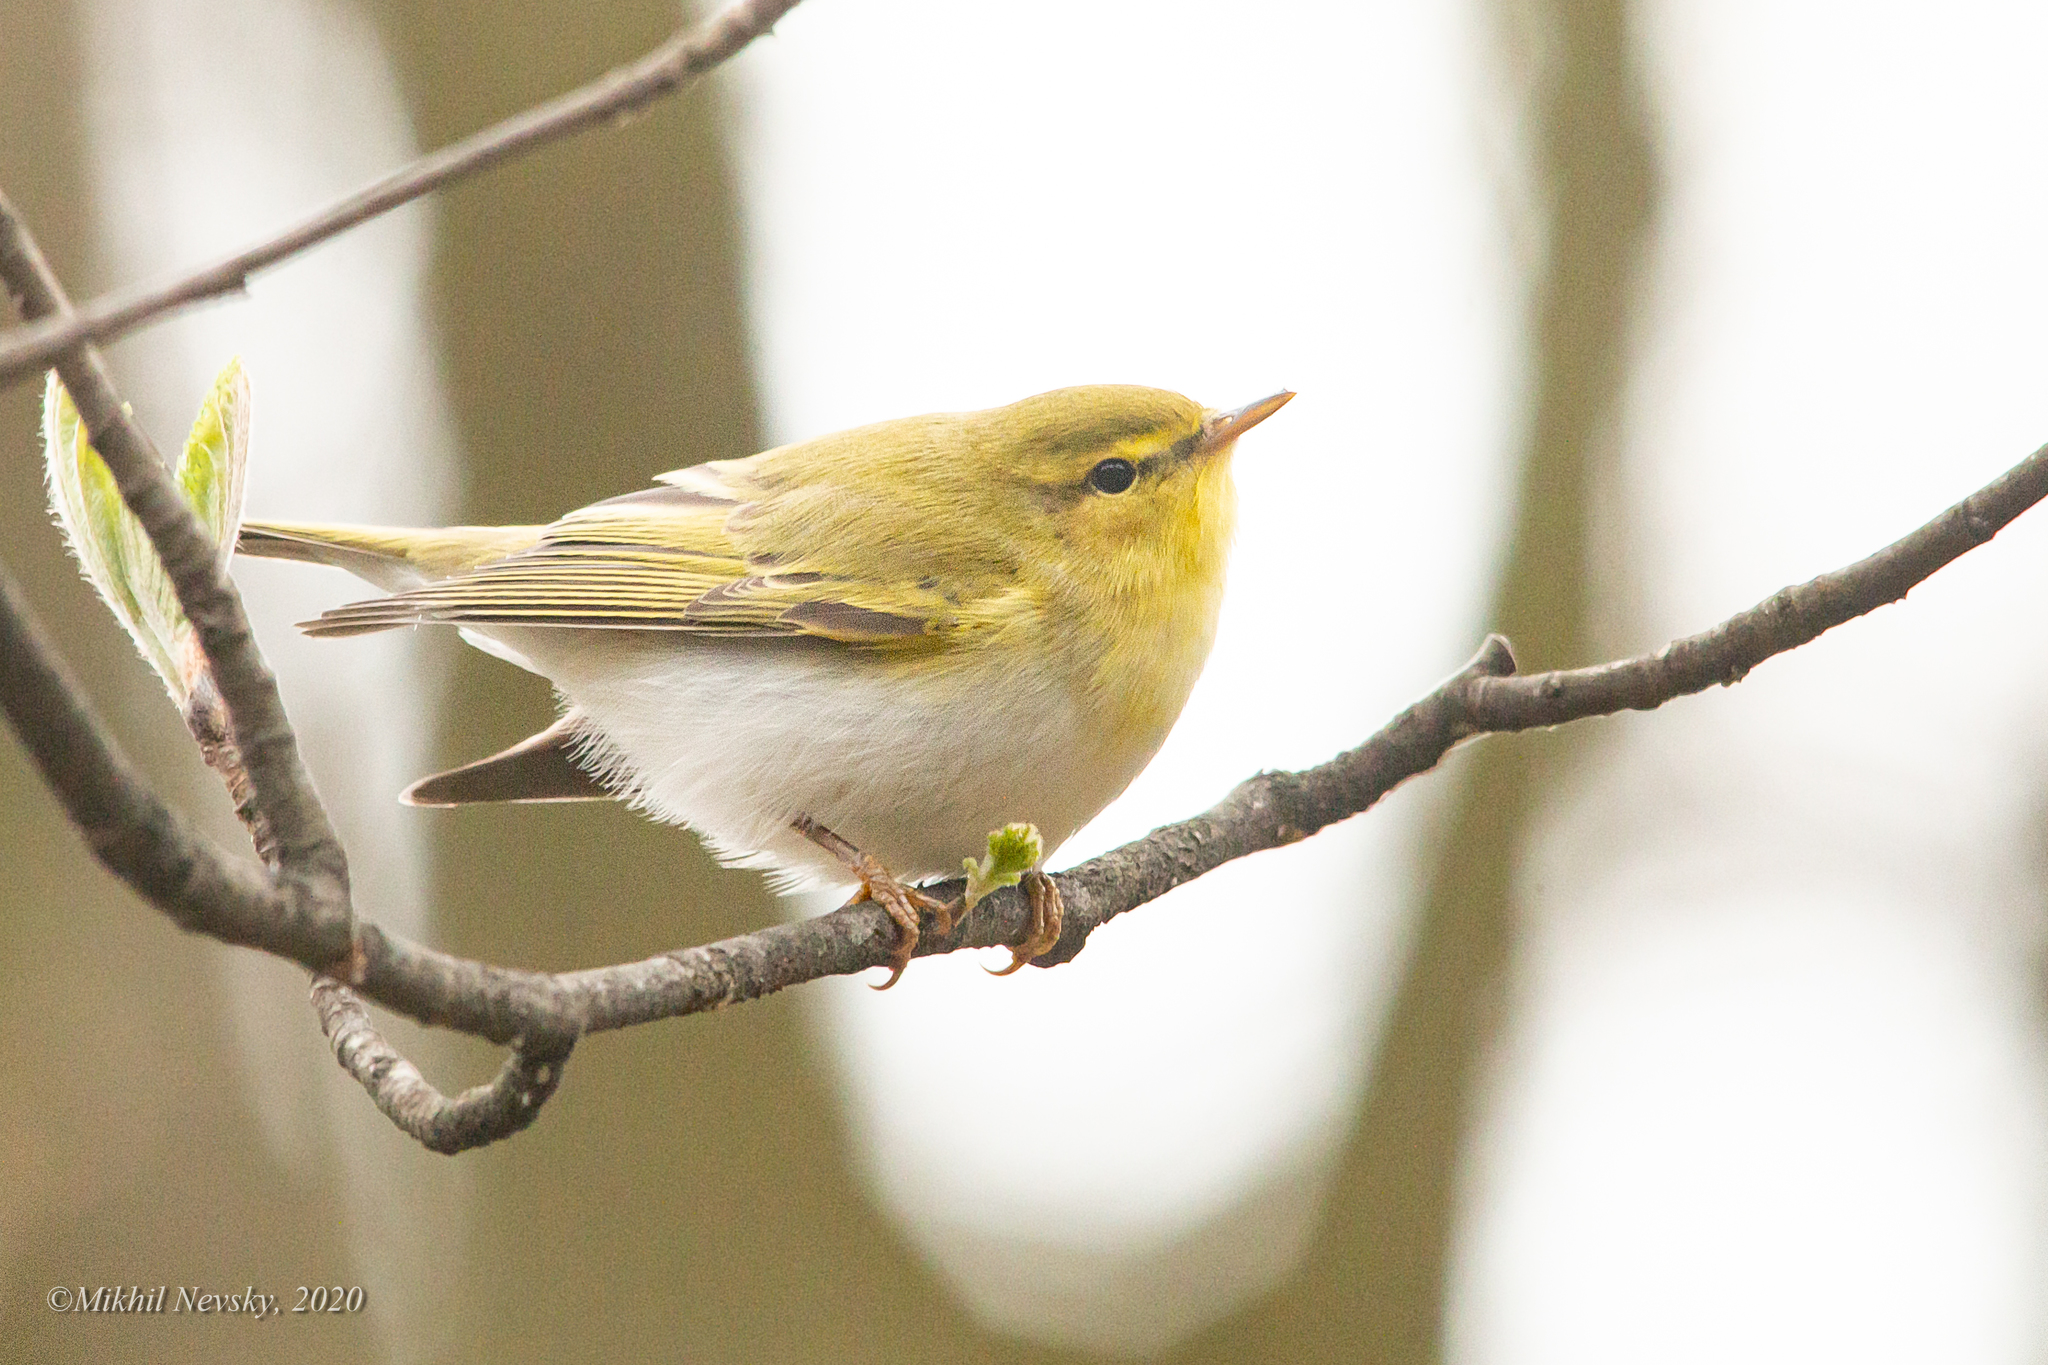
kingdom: Animalia
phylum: Chordata
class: Aves
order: Passeriformes
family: Phylloscopidae
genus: Phylloscopus
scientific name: Phylloscopus sibillatrix
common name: Wood warbler
